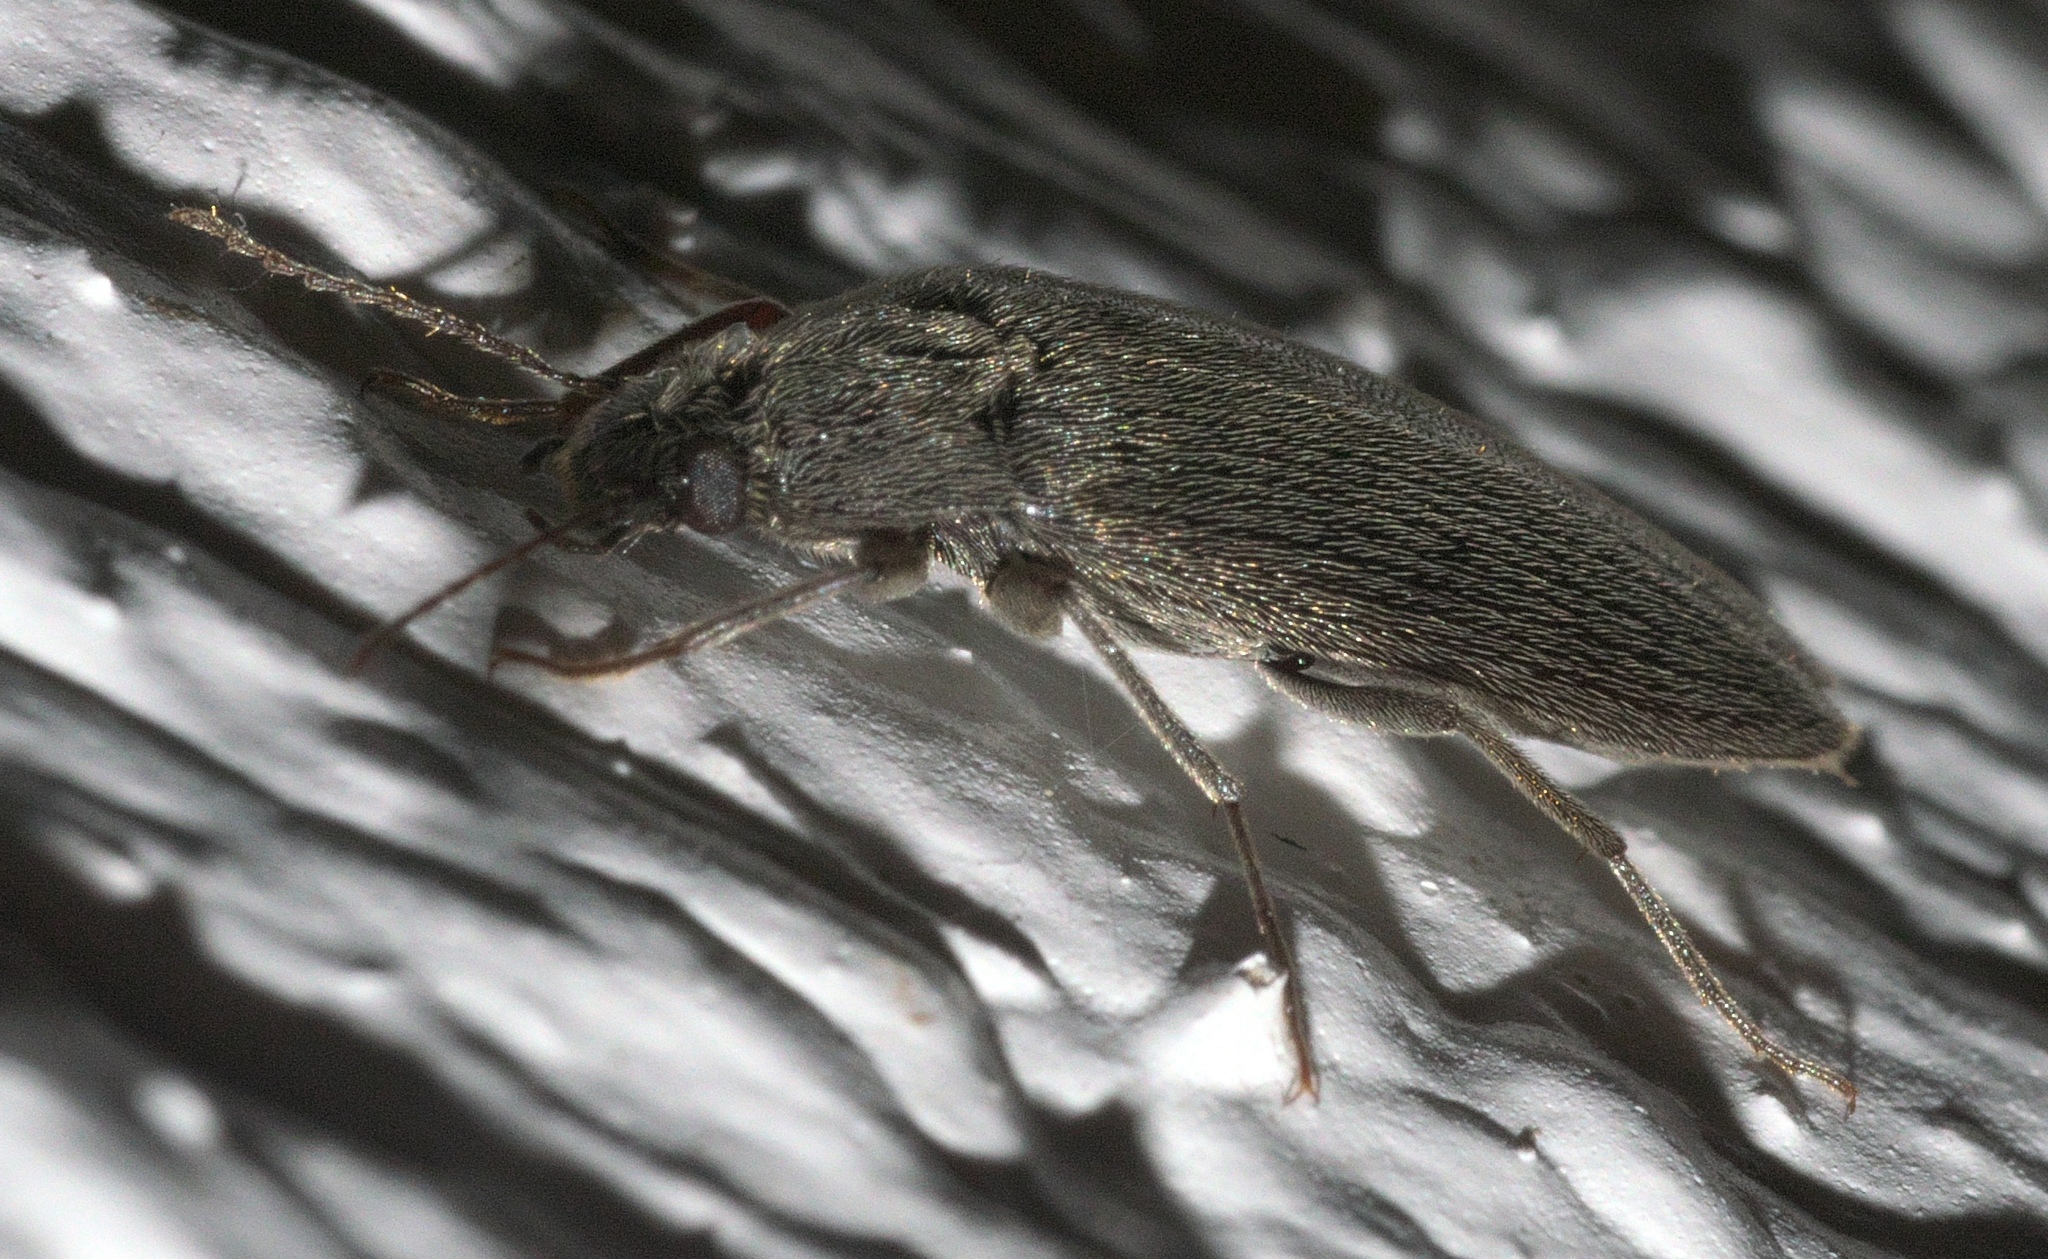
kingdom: Animalia
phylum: Arthropoda
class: Insecta
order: Coleoptera
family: Synchroidae
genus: Synchroa
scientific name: Synchroa punctata
